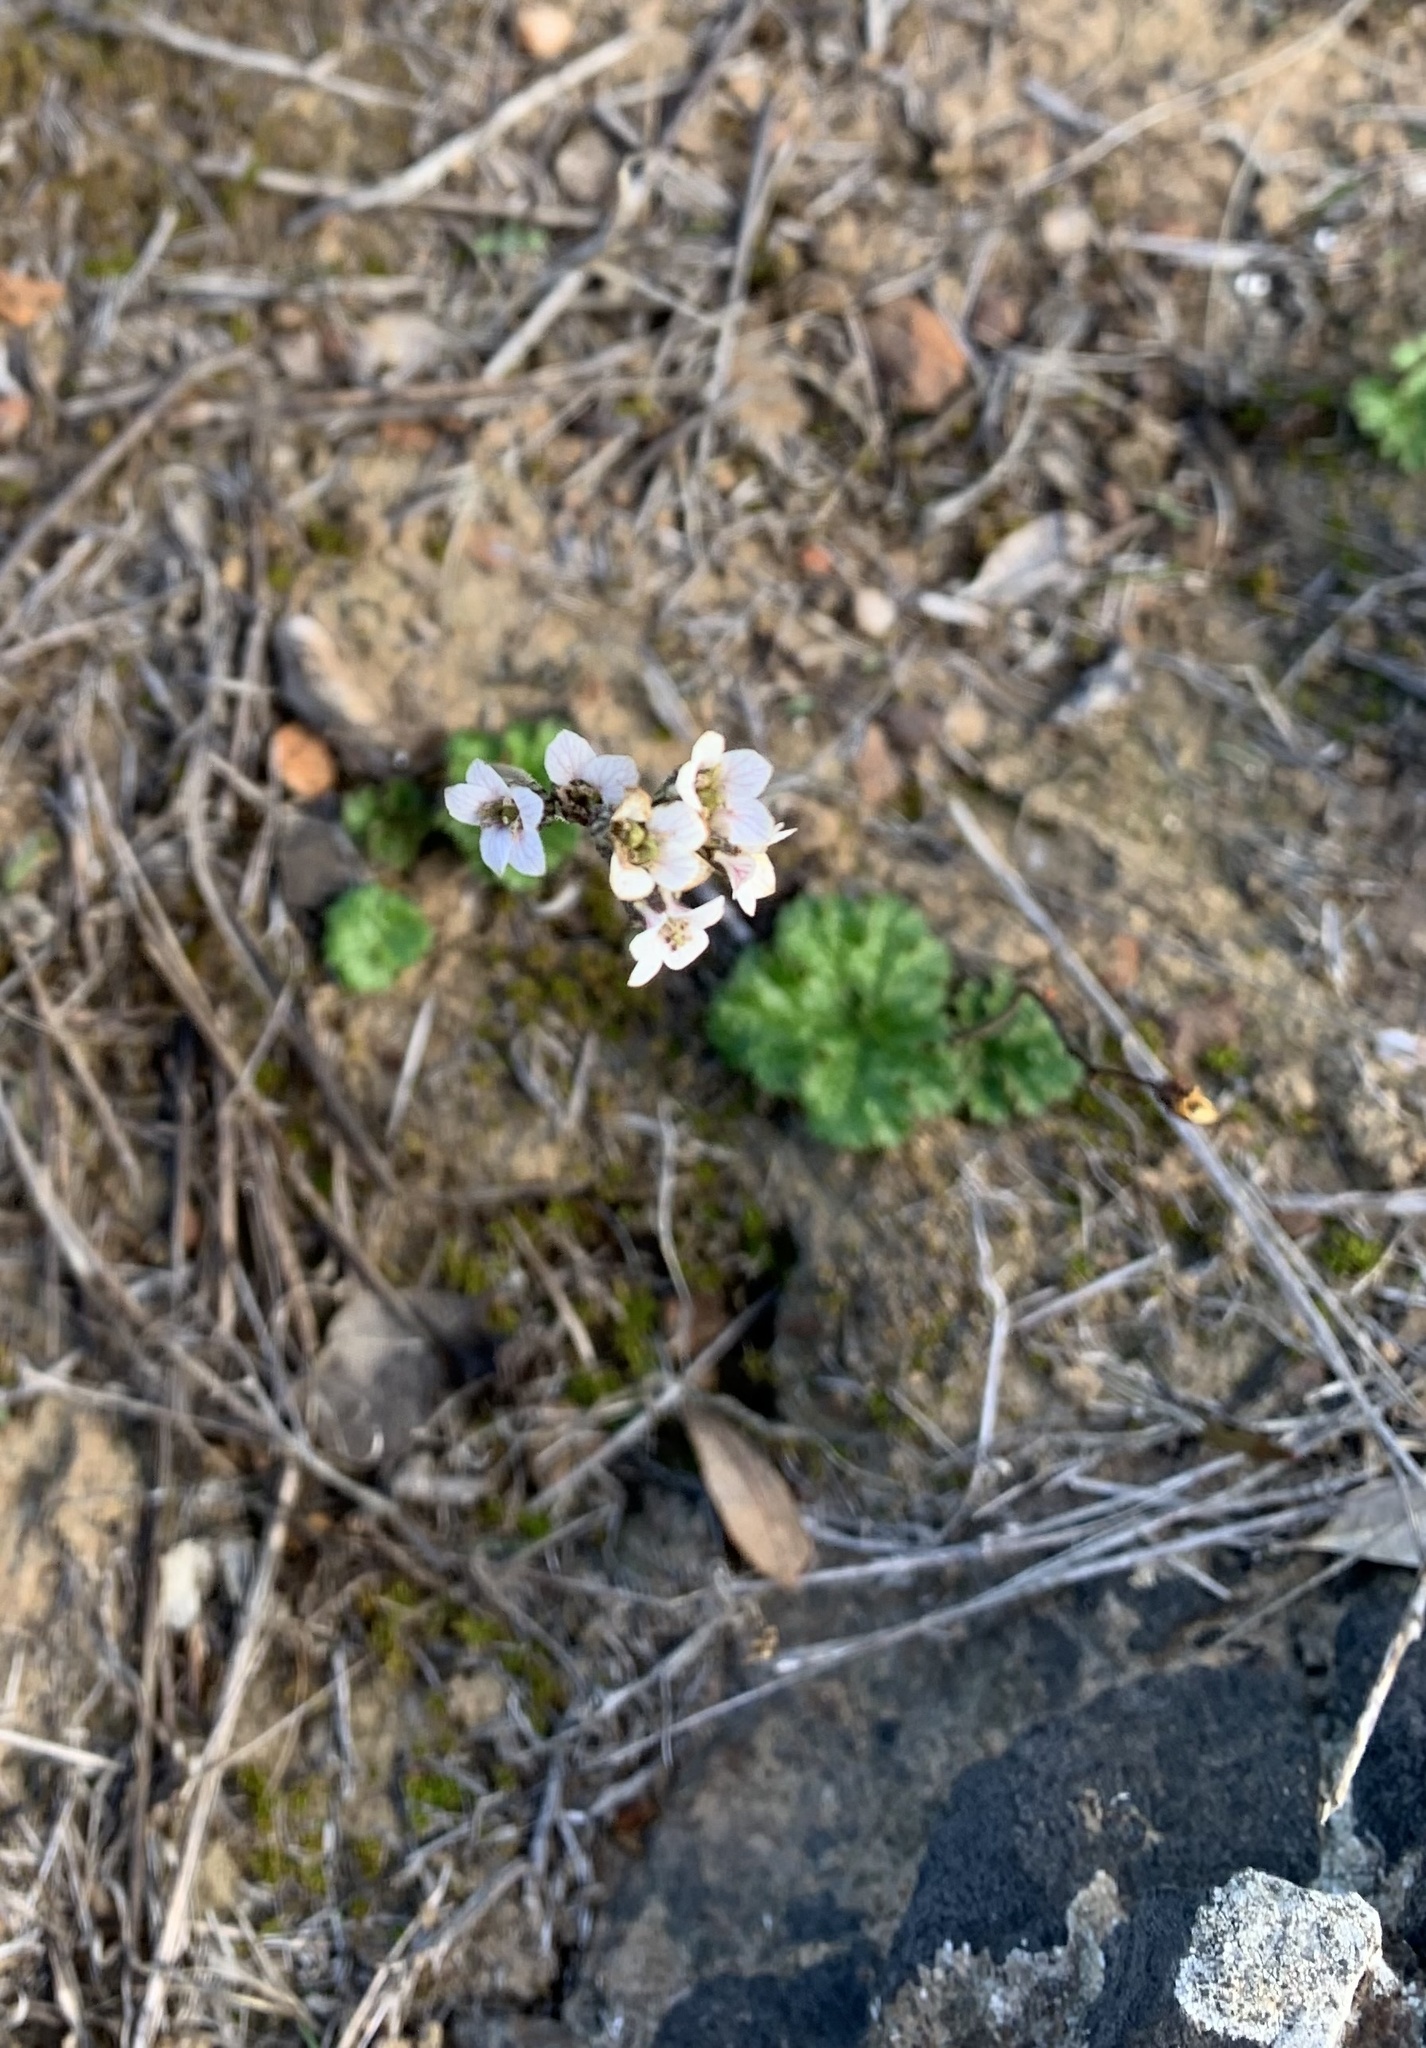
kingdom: Plantae
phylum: Tracheophyta
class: Magnoliopsida
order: Saxifragales
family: Saxifragaceae
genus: Jepsonia
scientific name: Jepsonia malvifolia
